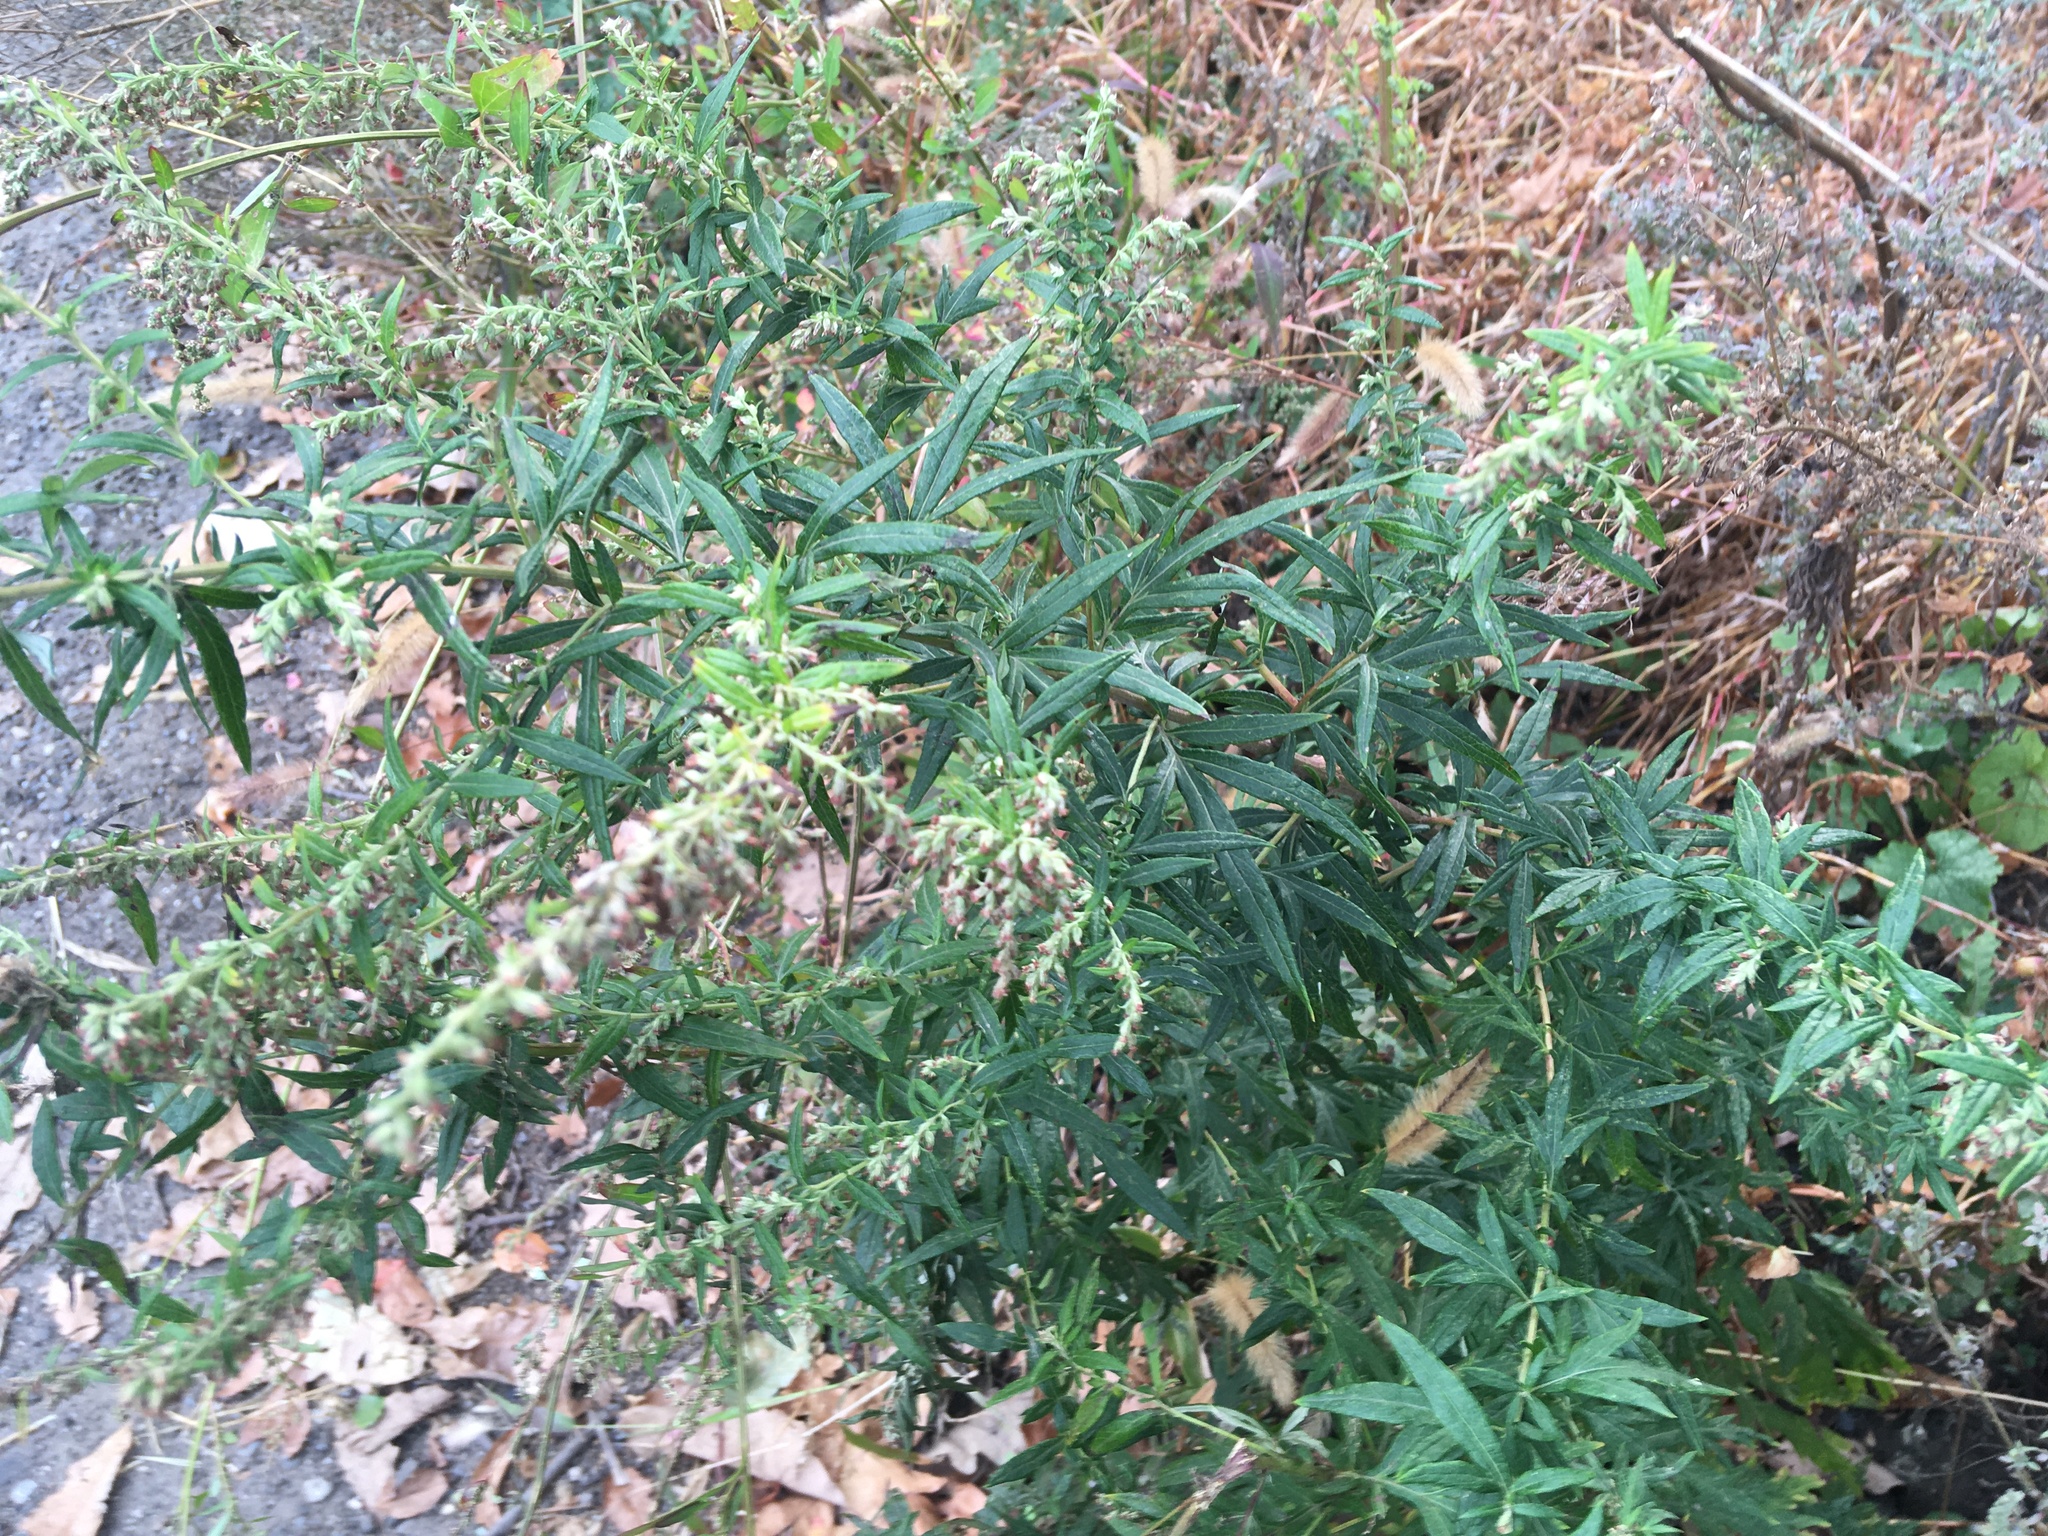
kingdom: Plantae
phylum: Tracheophyta
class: Magnoliopsida
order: Asterales
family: Asteraceae
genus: Artemisia
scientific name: Artemisia vulgaris
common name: Mugwort
